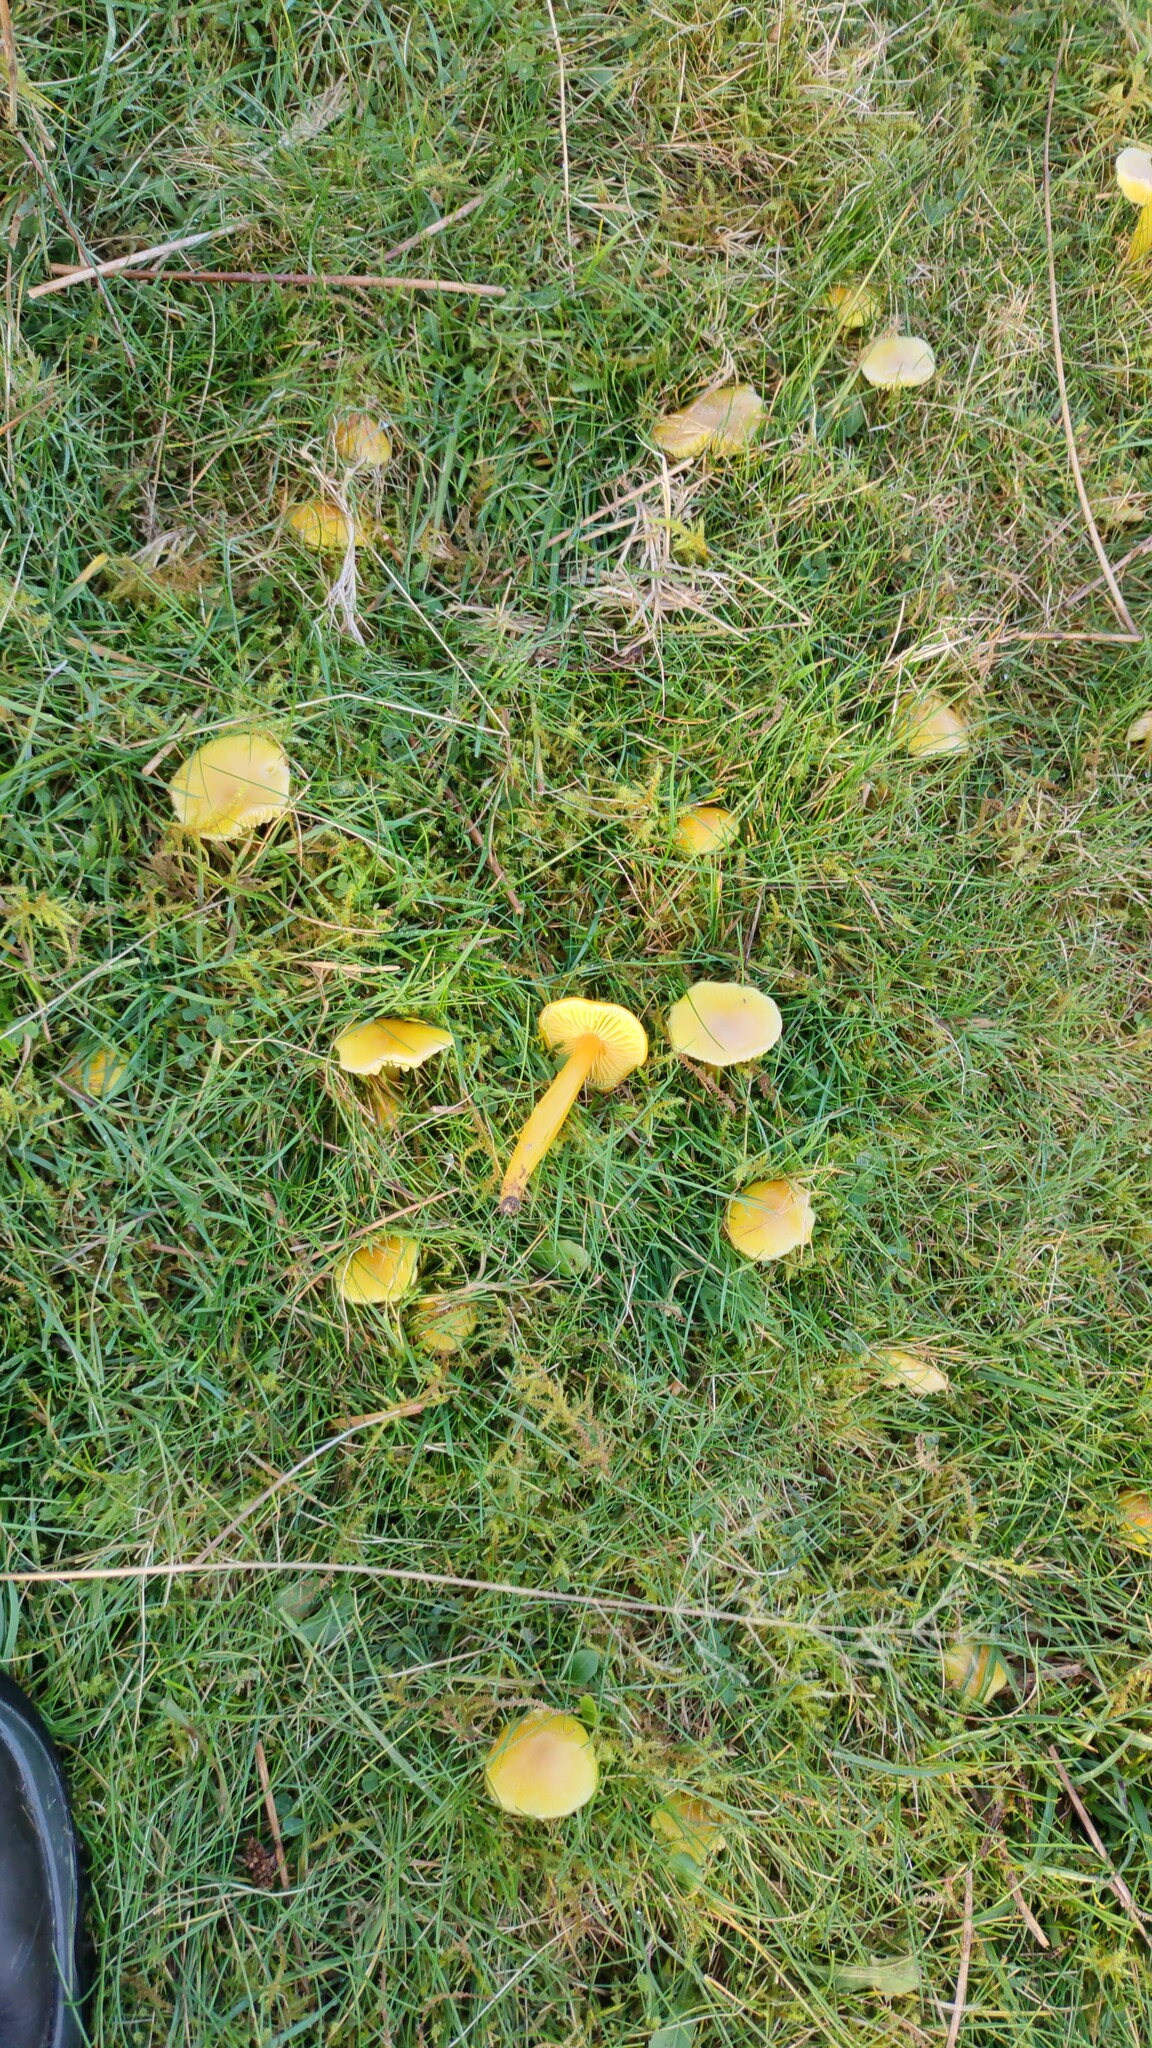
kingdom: Fungi
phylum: Basidiomycota
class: Agaricomycetes
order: Agaricales
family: Hygrophoraceae
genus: Hygrocybe
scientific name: Hygrocybe chlorophana
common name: Golden waxcap
